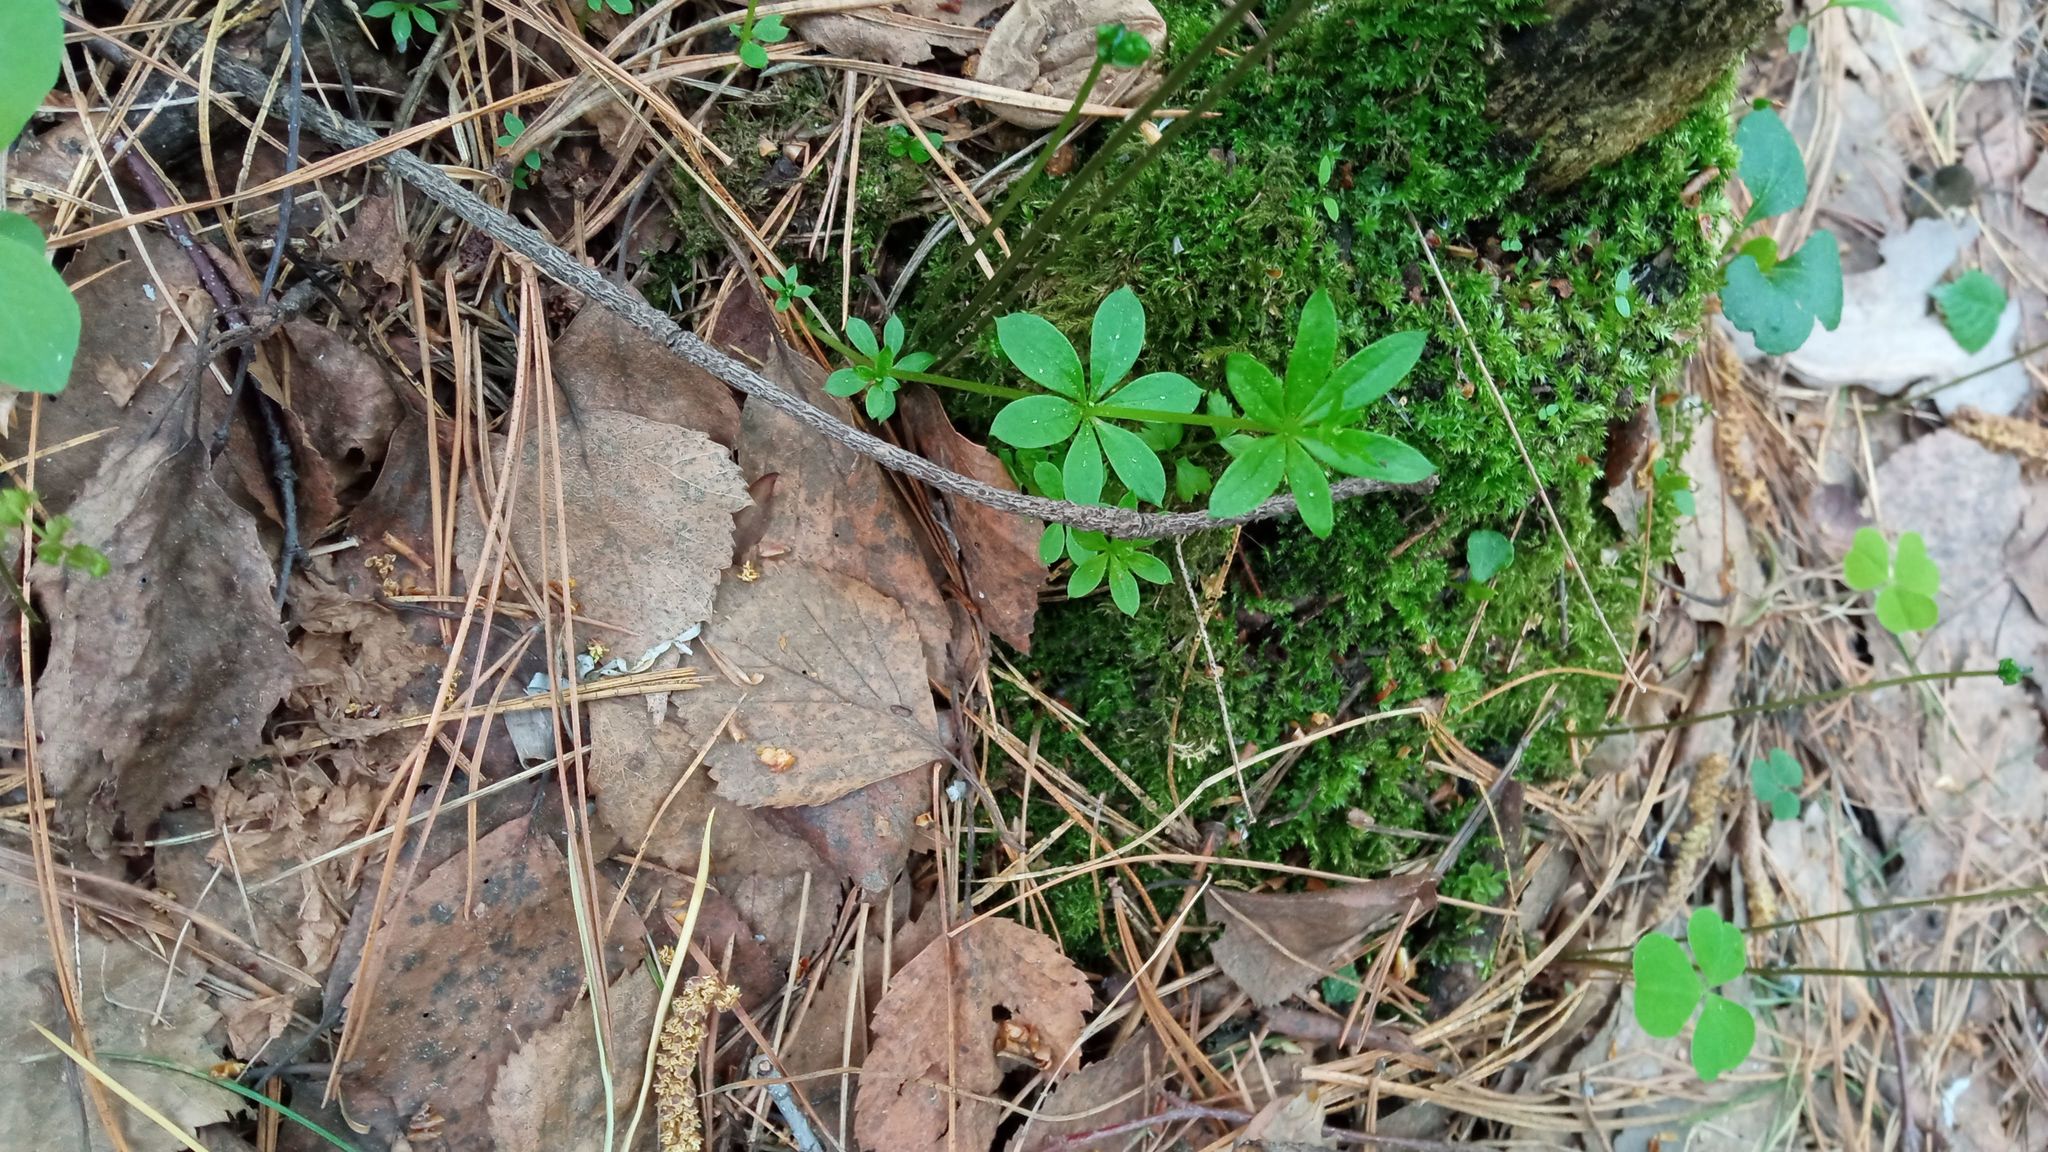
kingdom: Plantae
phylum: Tracheophyta
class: Magnoliopsida
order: Gentianales
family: Rubiaceae
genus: Galium
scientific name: Galium triflorum
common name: Fragrant bedstraw
